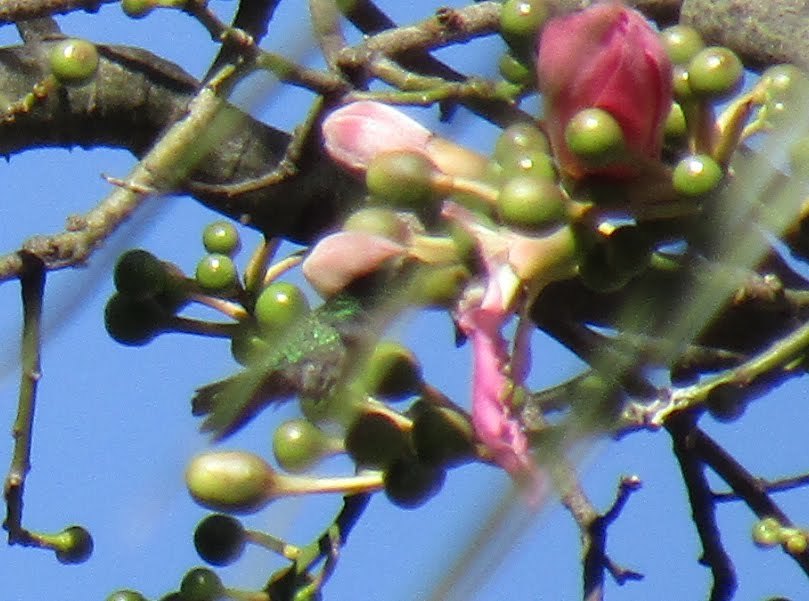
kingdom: Animalia
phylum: Chordata
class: Aves
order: Apodiformes
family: Trochilidae
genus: Chlorostilbon
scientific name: Chlorostilbon lucidus
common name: Glittering-bellied emerald
